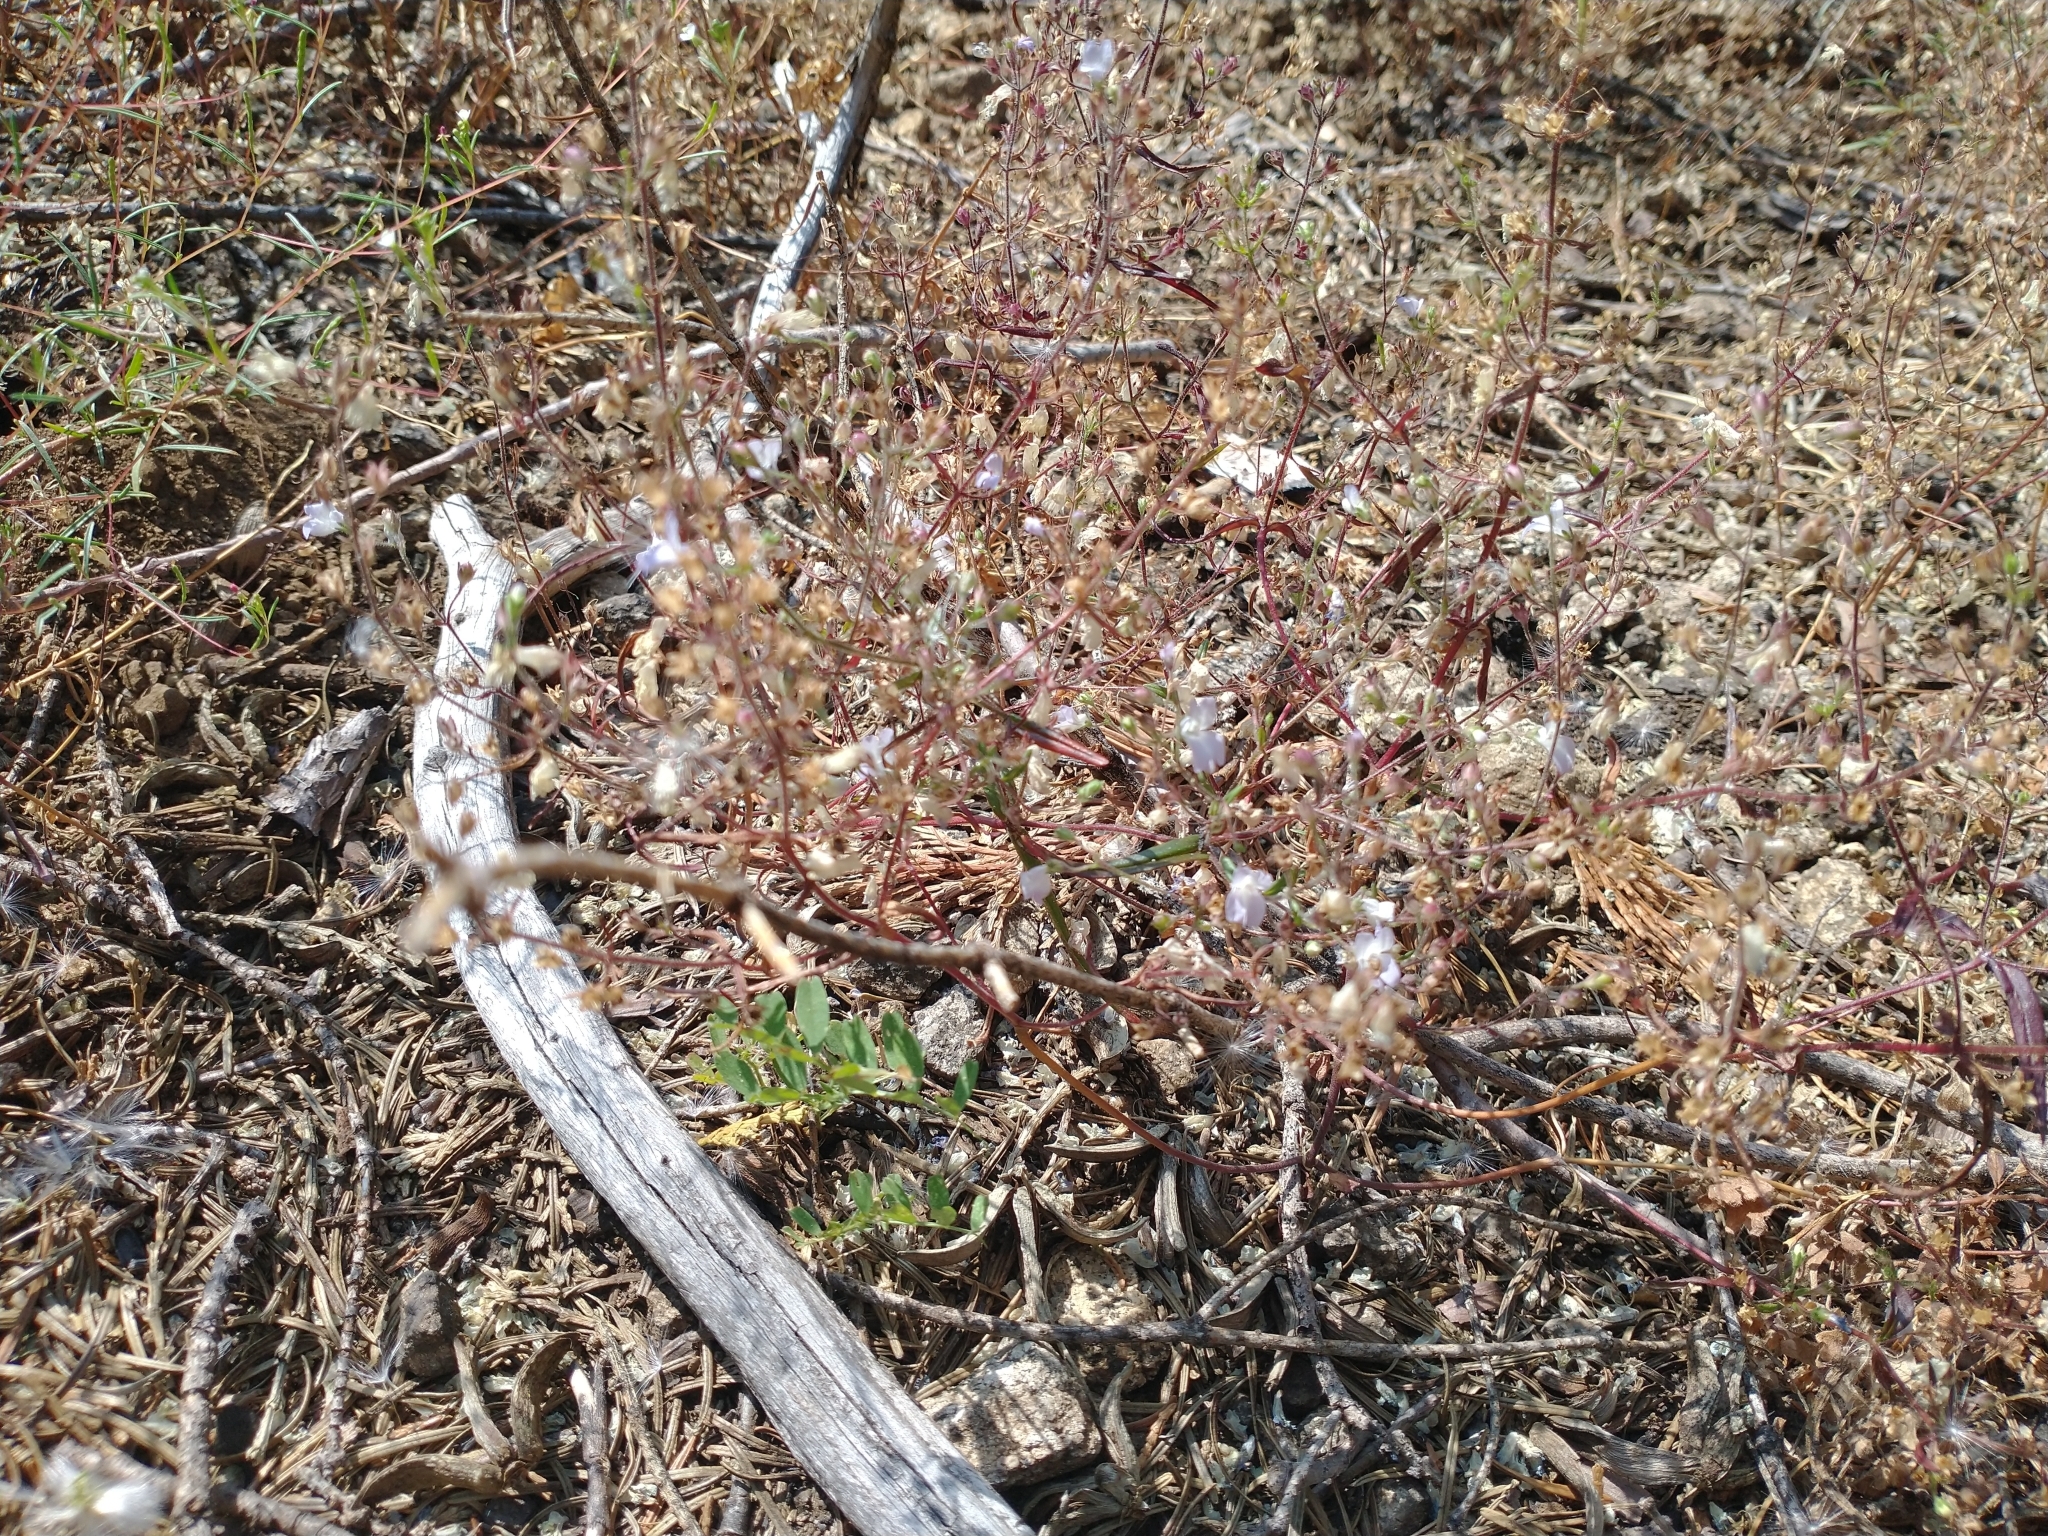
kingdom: Plantae
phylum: Tracheophyta
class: Magnoliopsida
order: Lamiales
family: Plantaginaceae
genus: Collinsia
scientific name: Collinsia linearis
